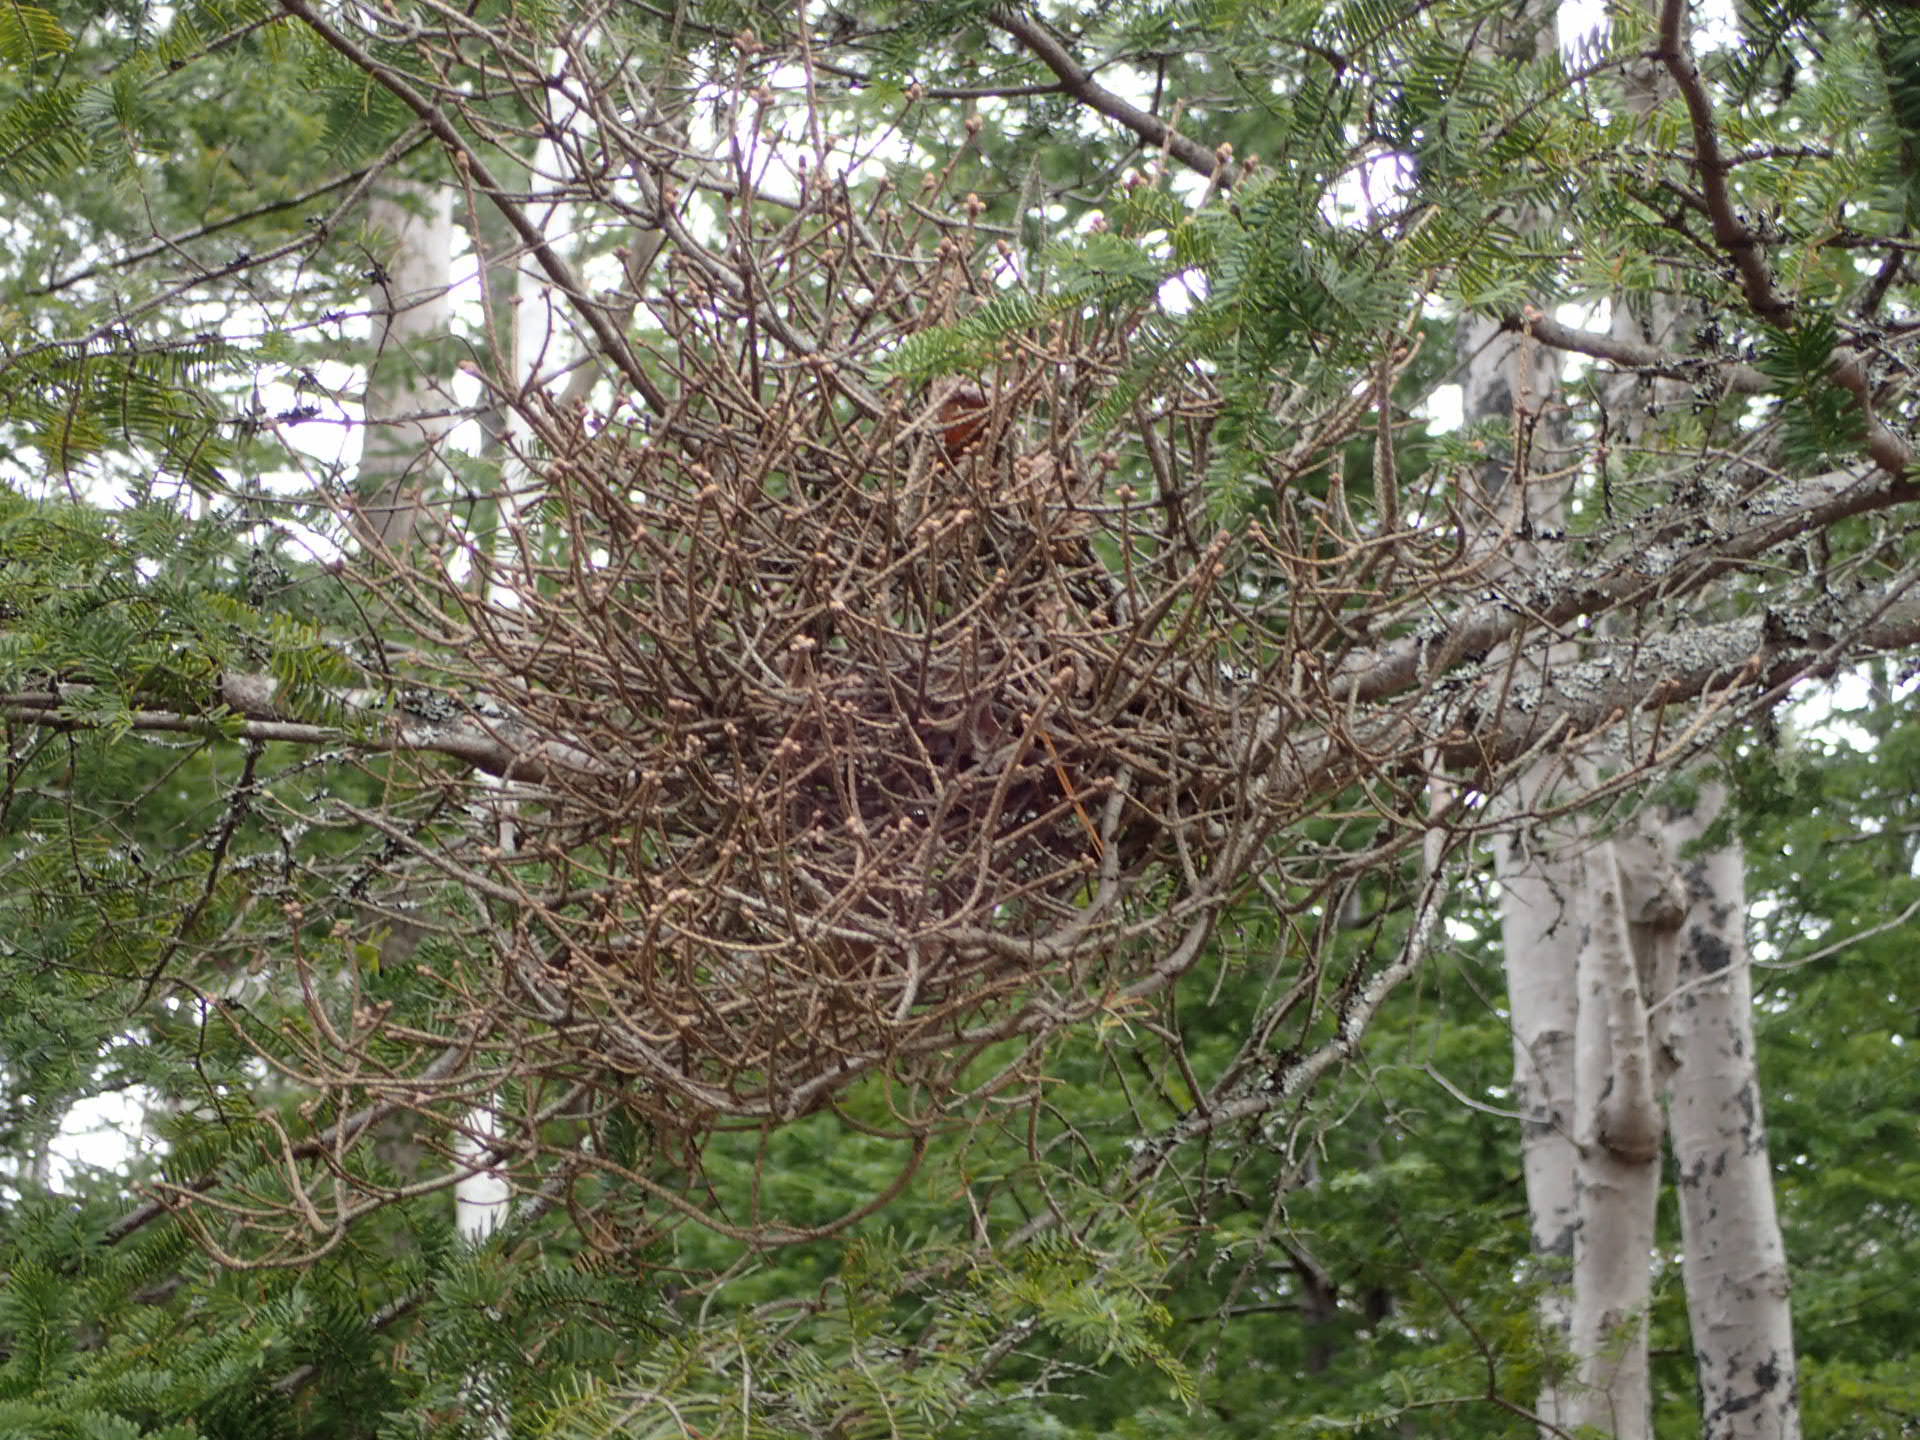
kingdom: Fungi
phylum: Basidiomycota
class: Pucciniomycetes
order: Pucciniales
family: Pucciniastraceae
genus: Melampsorella
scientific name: Melampsorella elatina
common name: Fir broom rust
